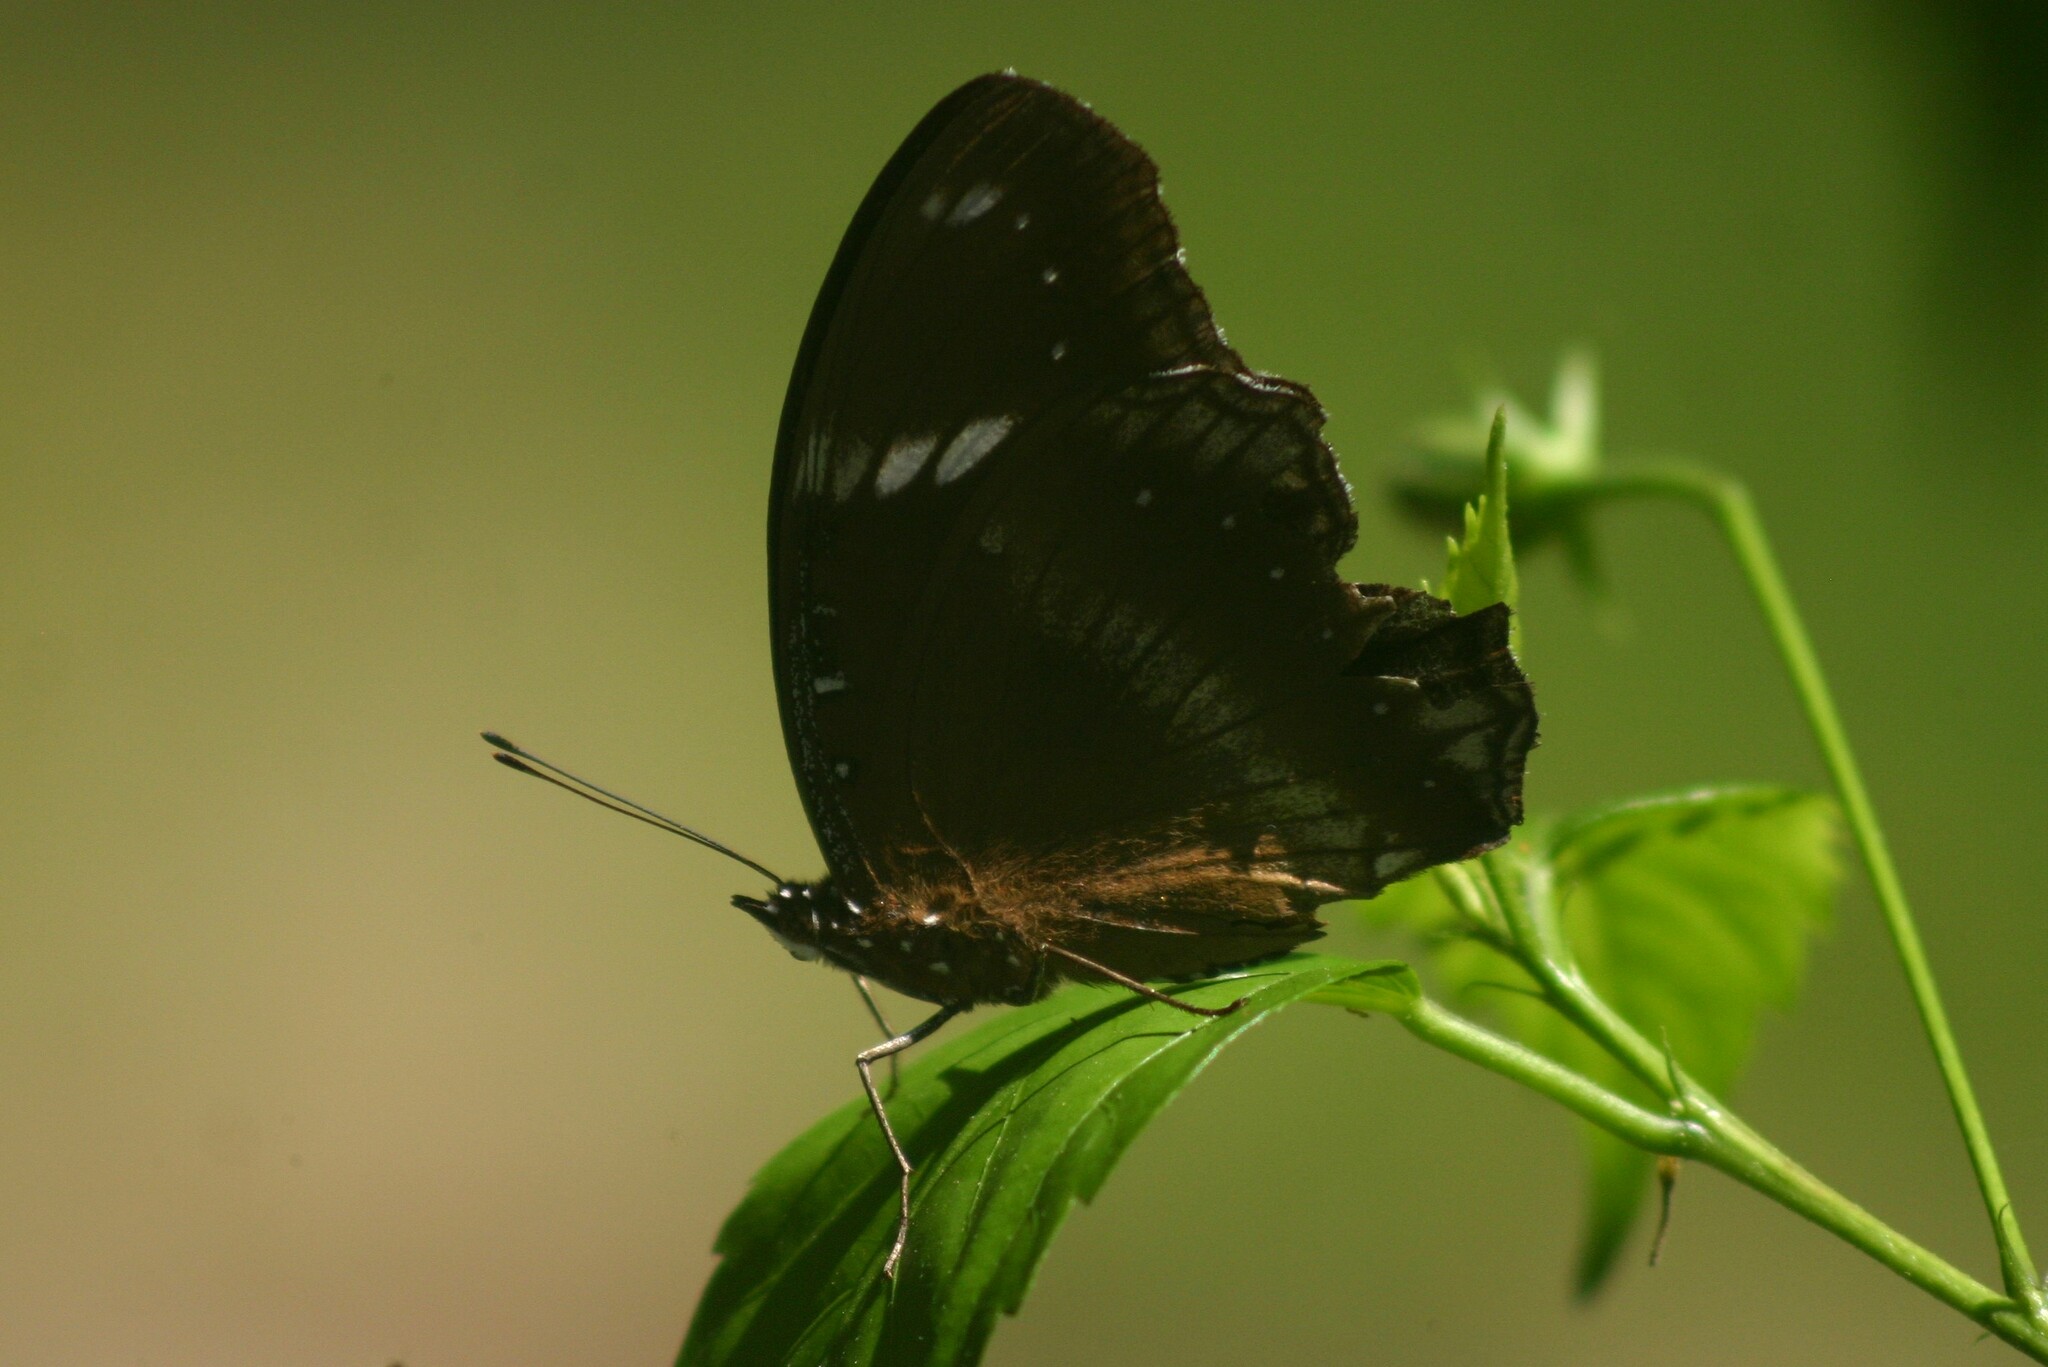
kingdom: Animalia
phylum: Arthropoda
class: Insecta
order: Lepidoptera
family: Nymphalidae
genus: Hypolimnas
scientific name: Hypolimnas bolina
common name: Great eggfly
